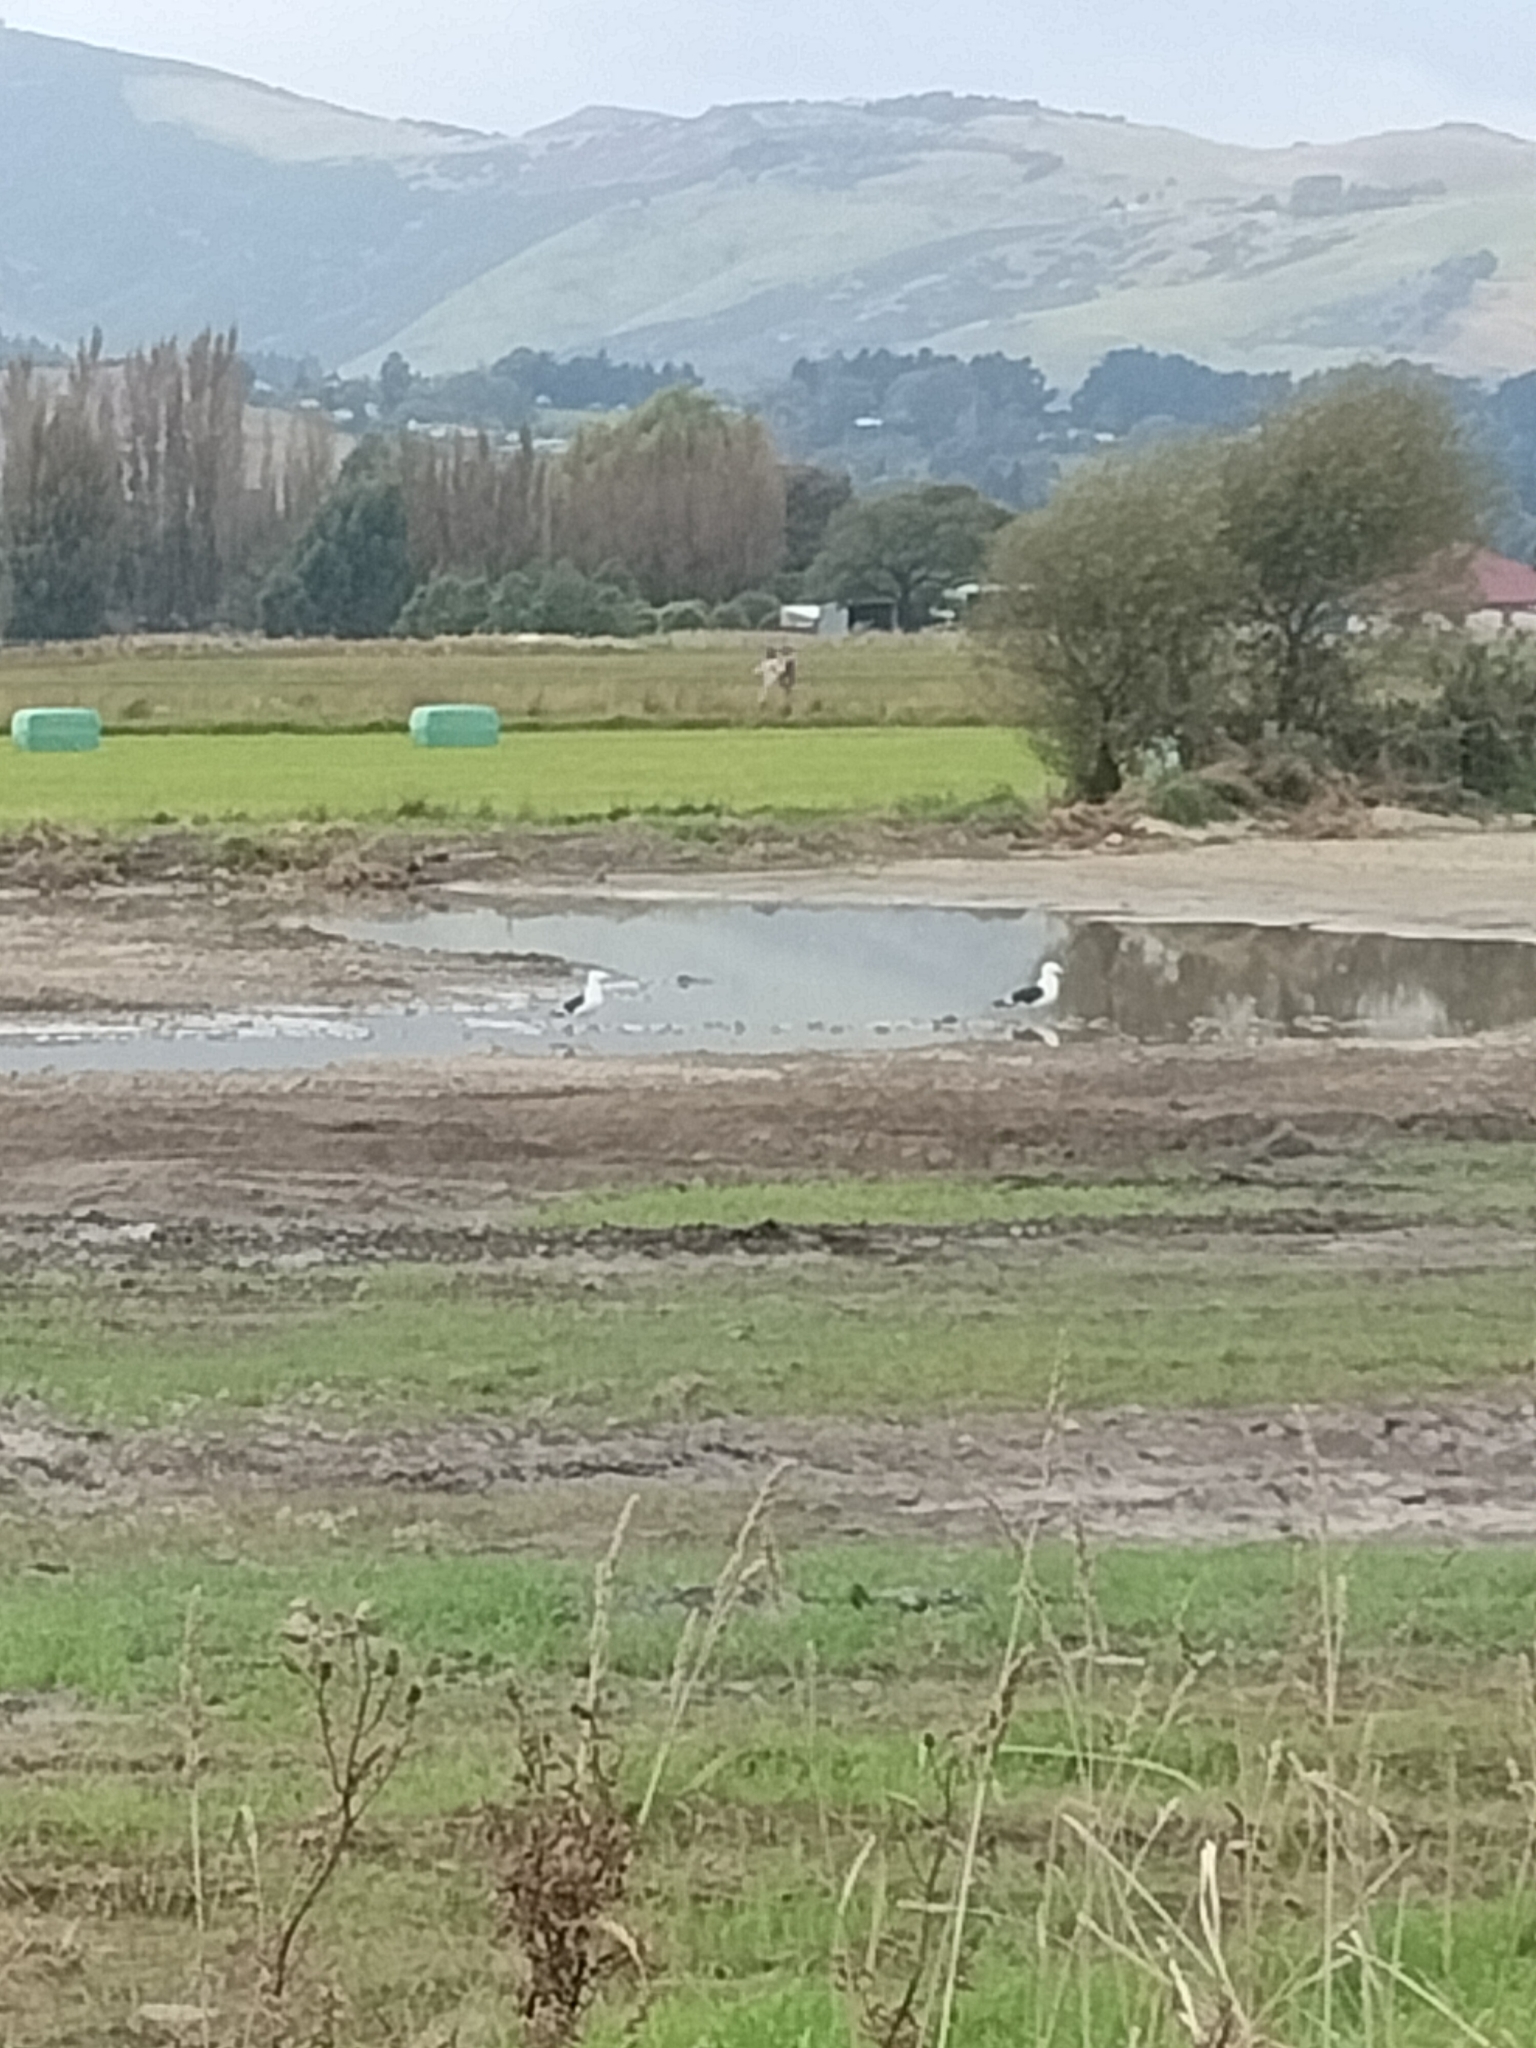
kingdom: Animalia
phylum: Chordata
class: Aves
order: Charadriiformes
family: Laridae
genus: Larus
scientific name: Larus dominicanus
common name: Kelp gull
